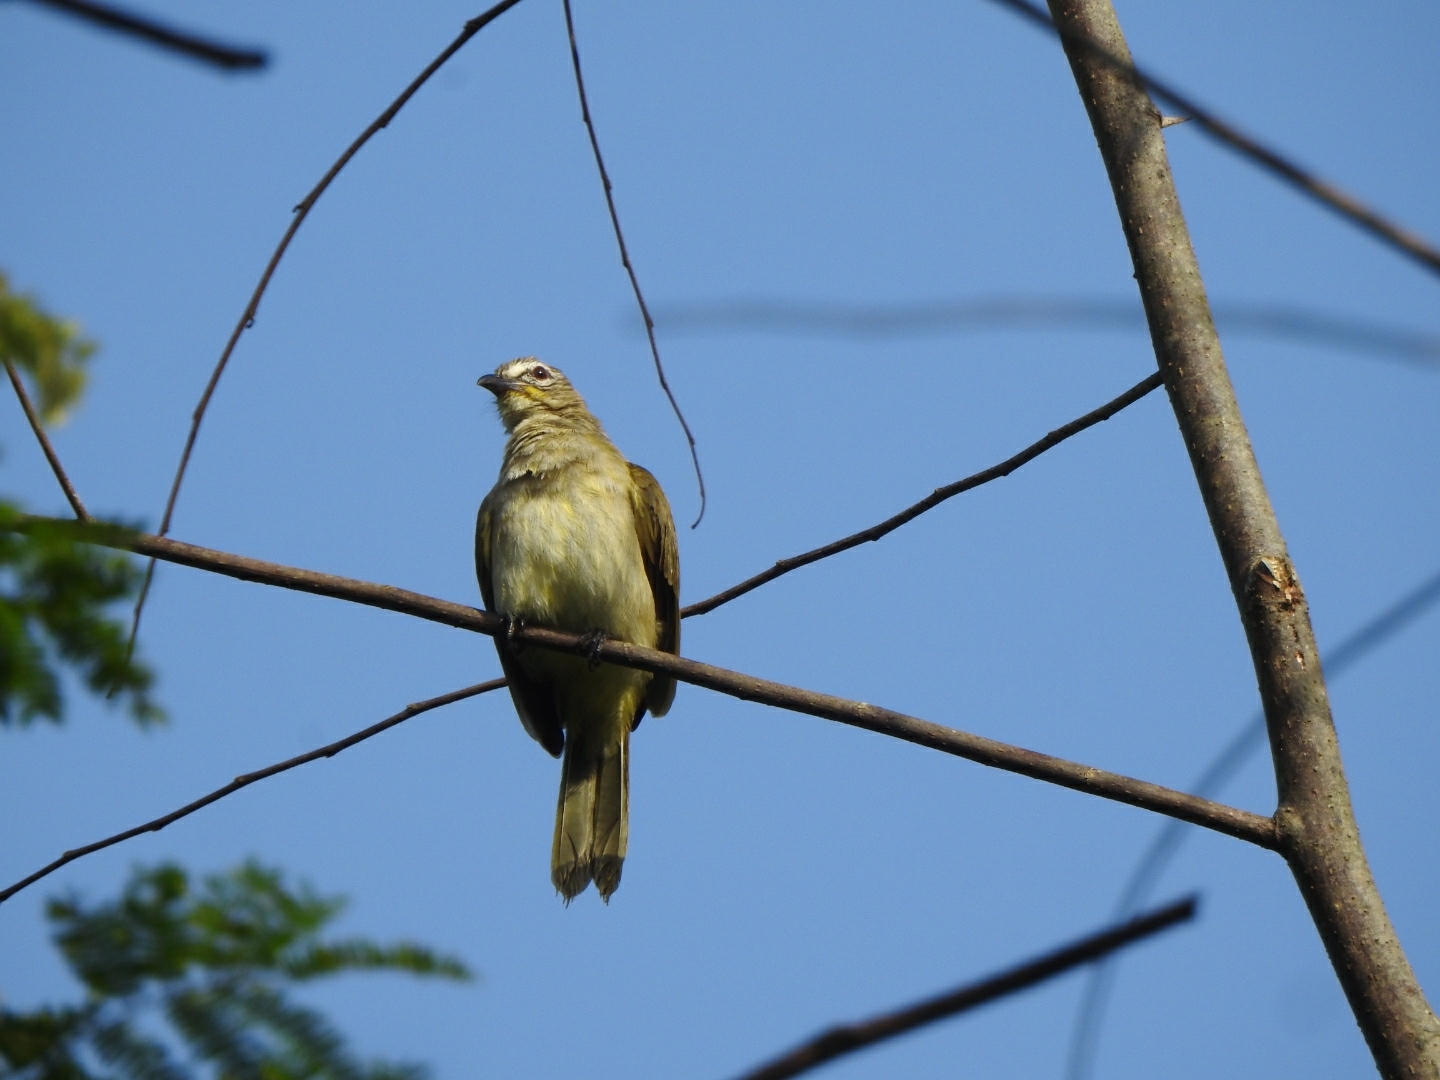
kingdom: Animalia
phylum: Chordata
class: Aves
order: Passeriformes
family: Pycnonotidae
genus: Pycnonotus
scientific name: Pycnonotus luteolus
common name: White-browed bulbul
